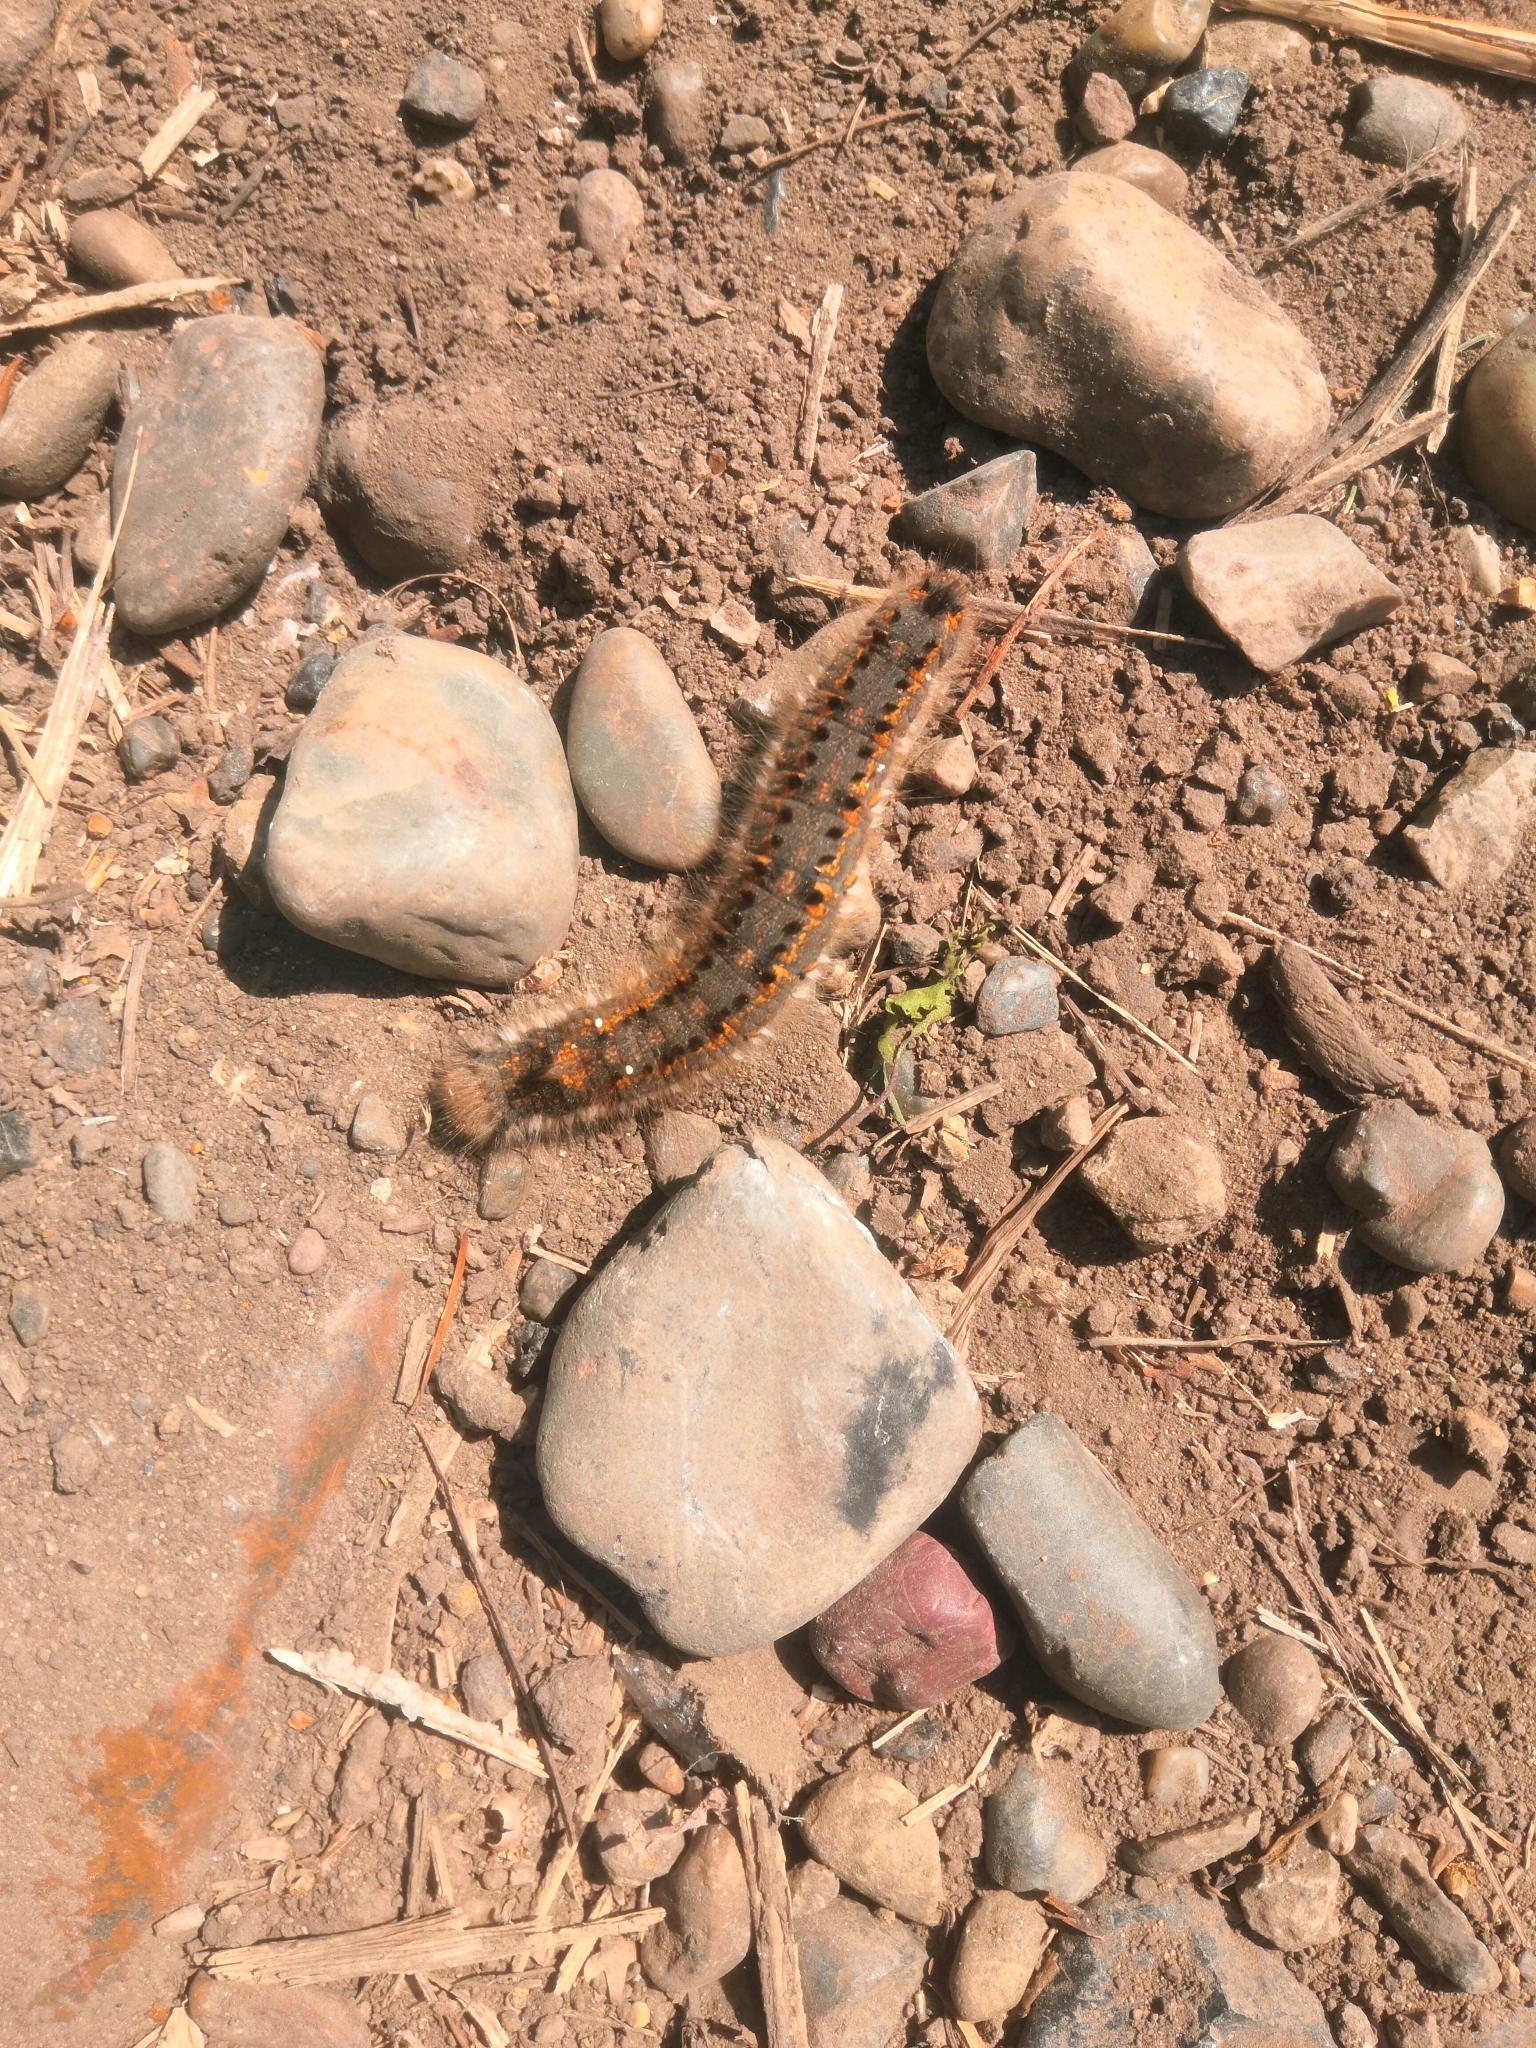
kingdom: Animalia
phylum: Arthropoda
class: Insecta
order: Lepidoptera
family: Lasiocampidae
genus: Euthrix
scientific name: Euthrix potatoria
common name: Drinker
